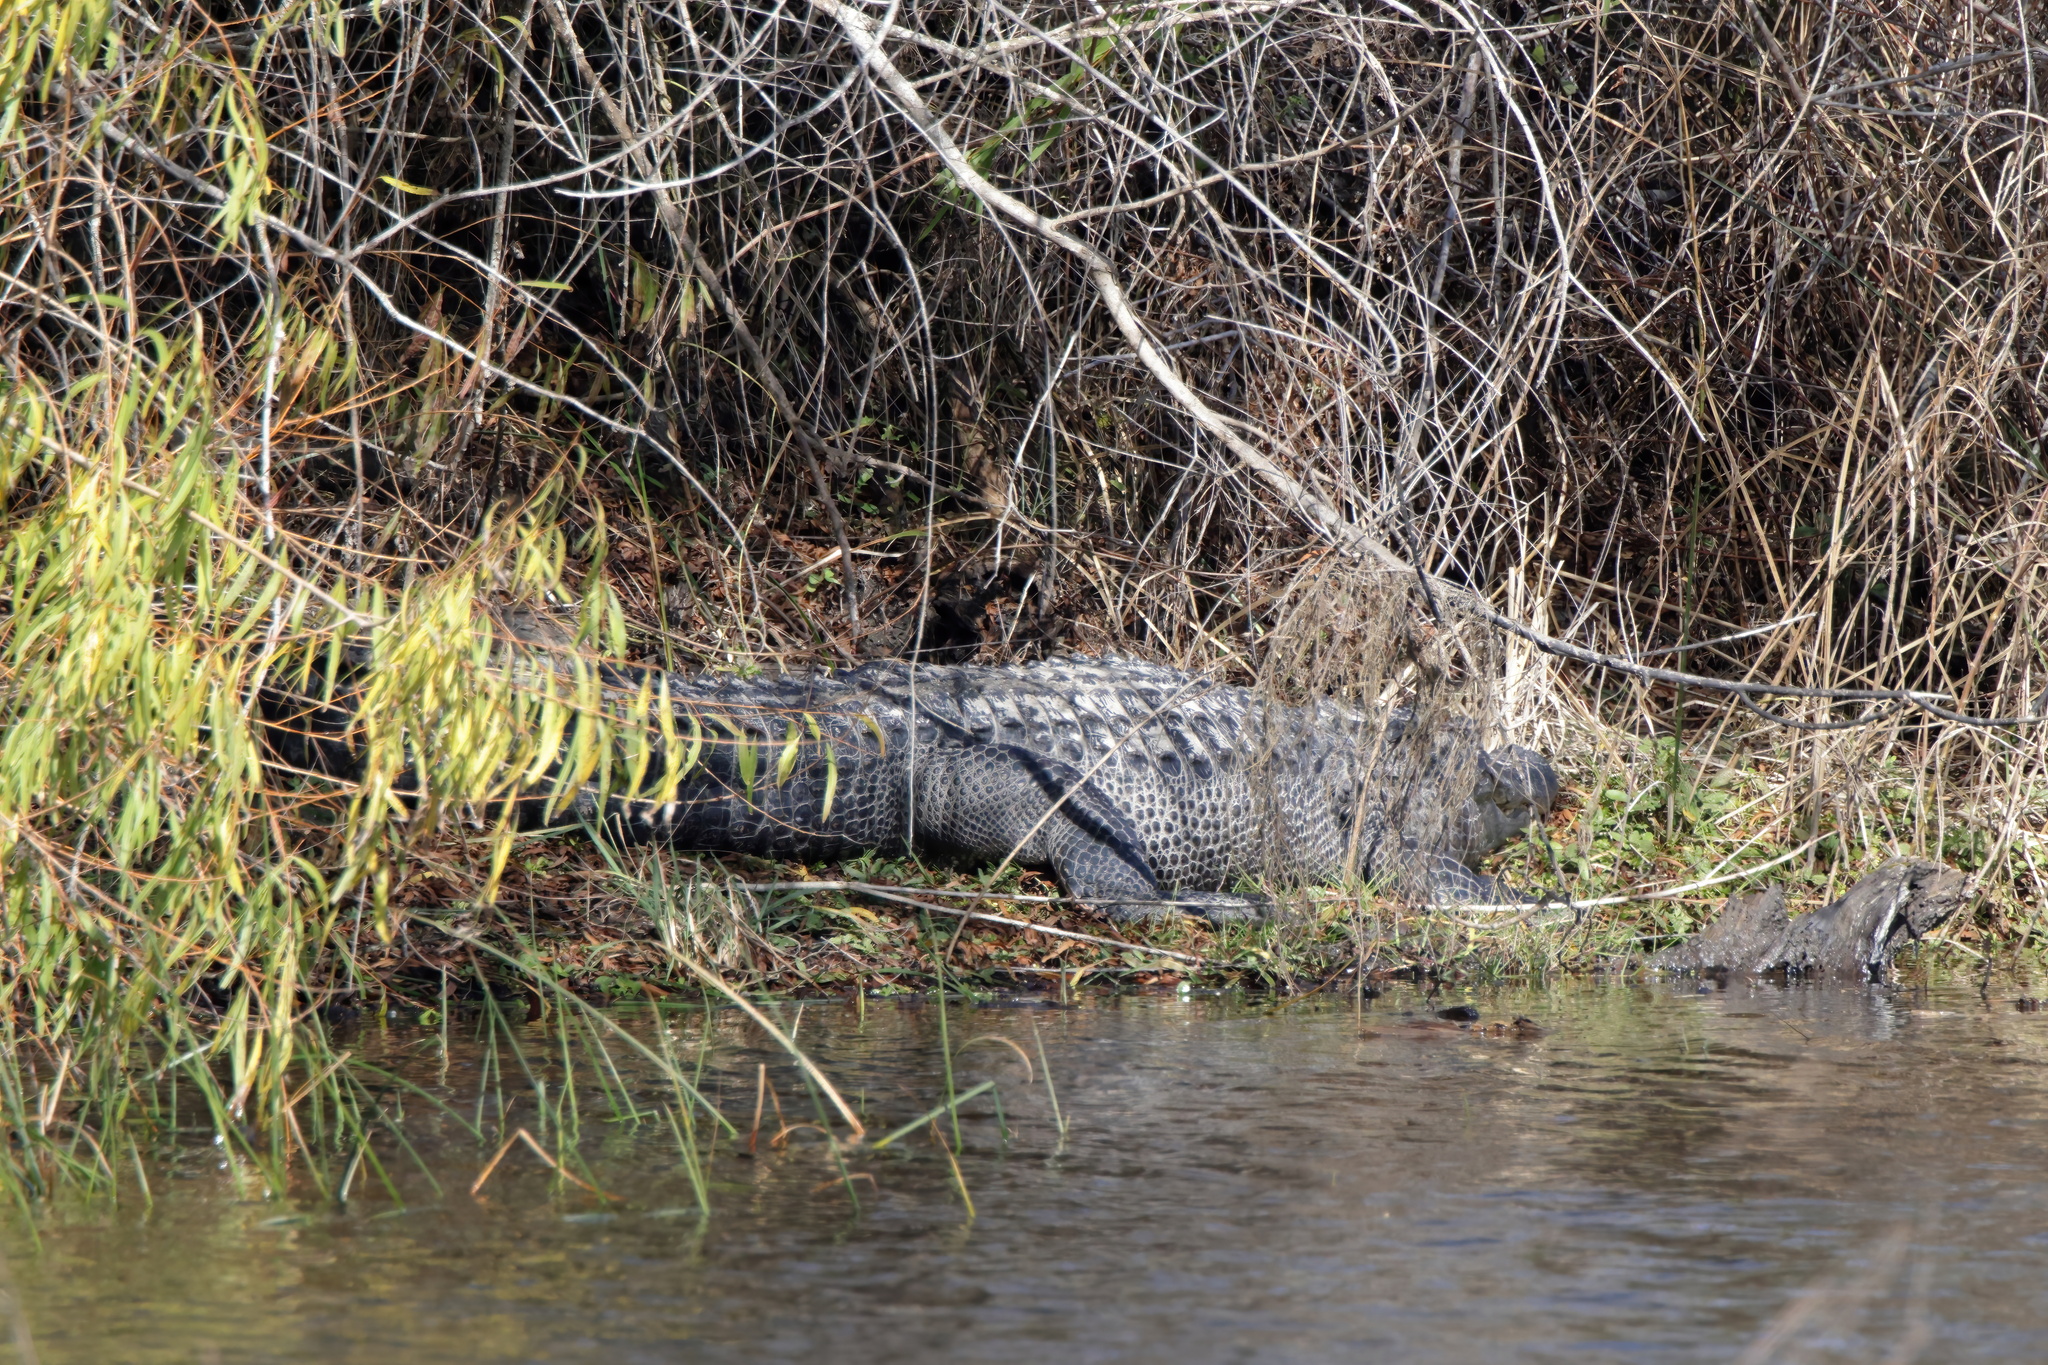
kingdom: Animalia
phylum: Chordata
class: Crocodylia
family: Alligatoridae
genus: Alligator
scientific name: Alligator mississippiensis
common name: American alligator
